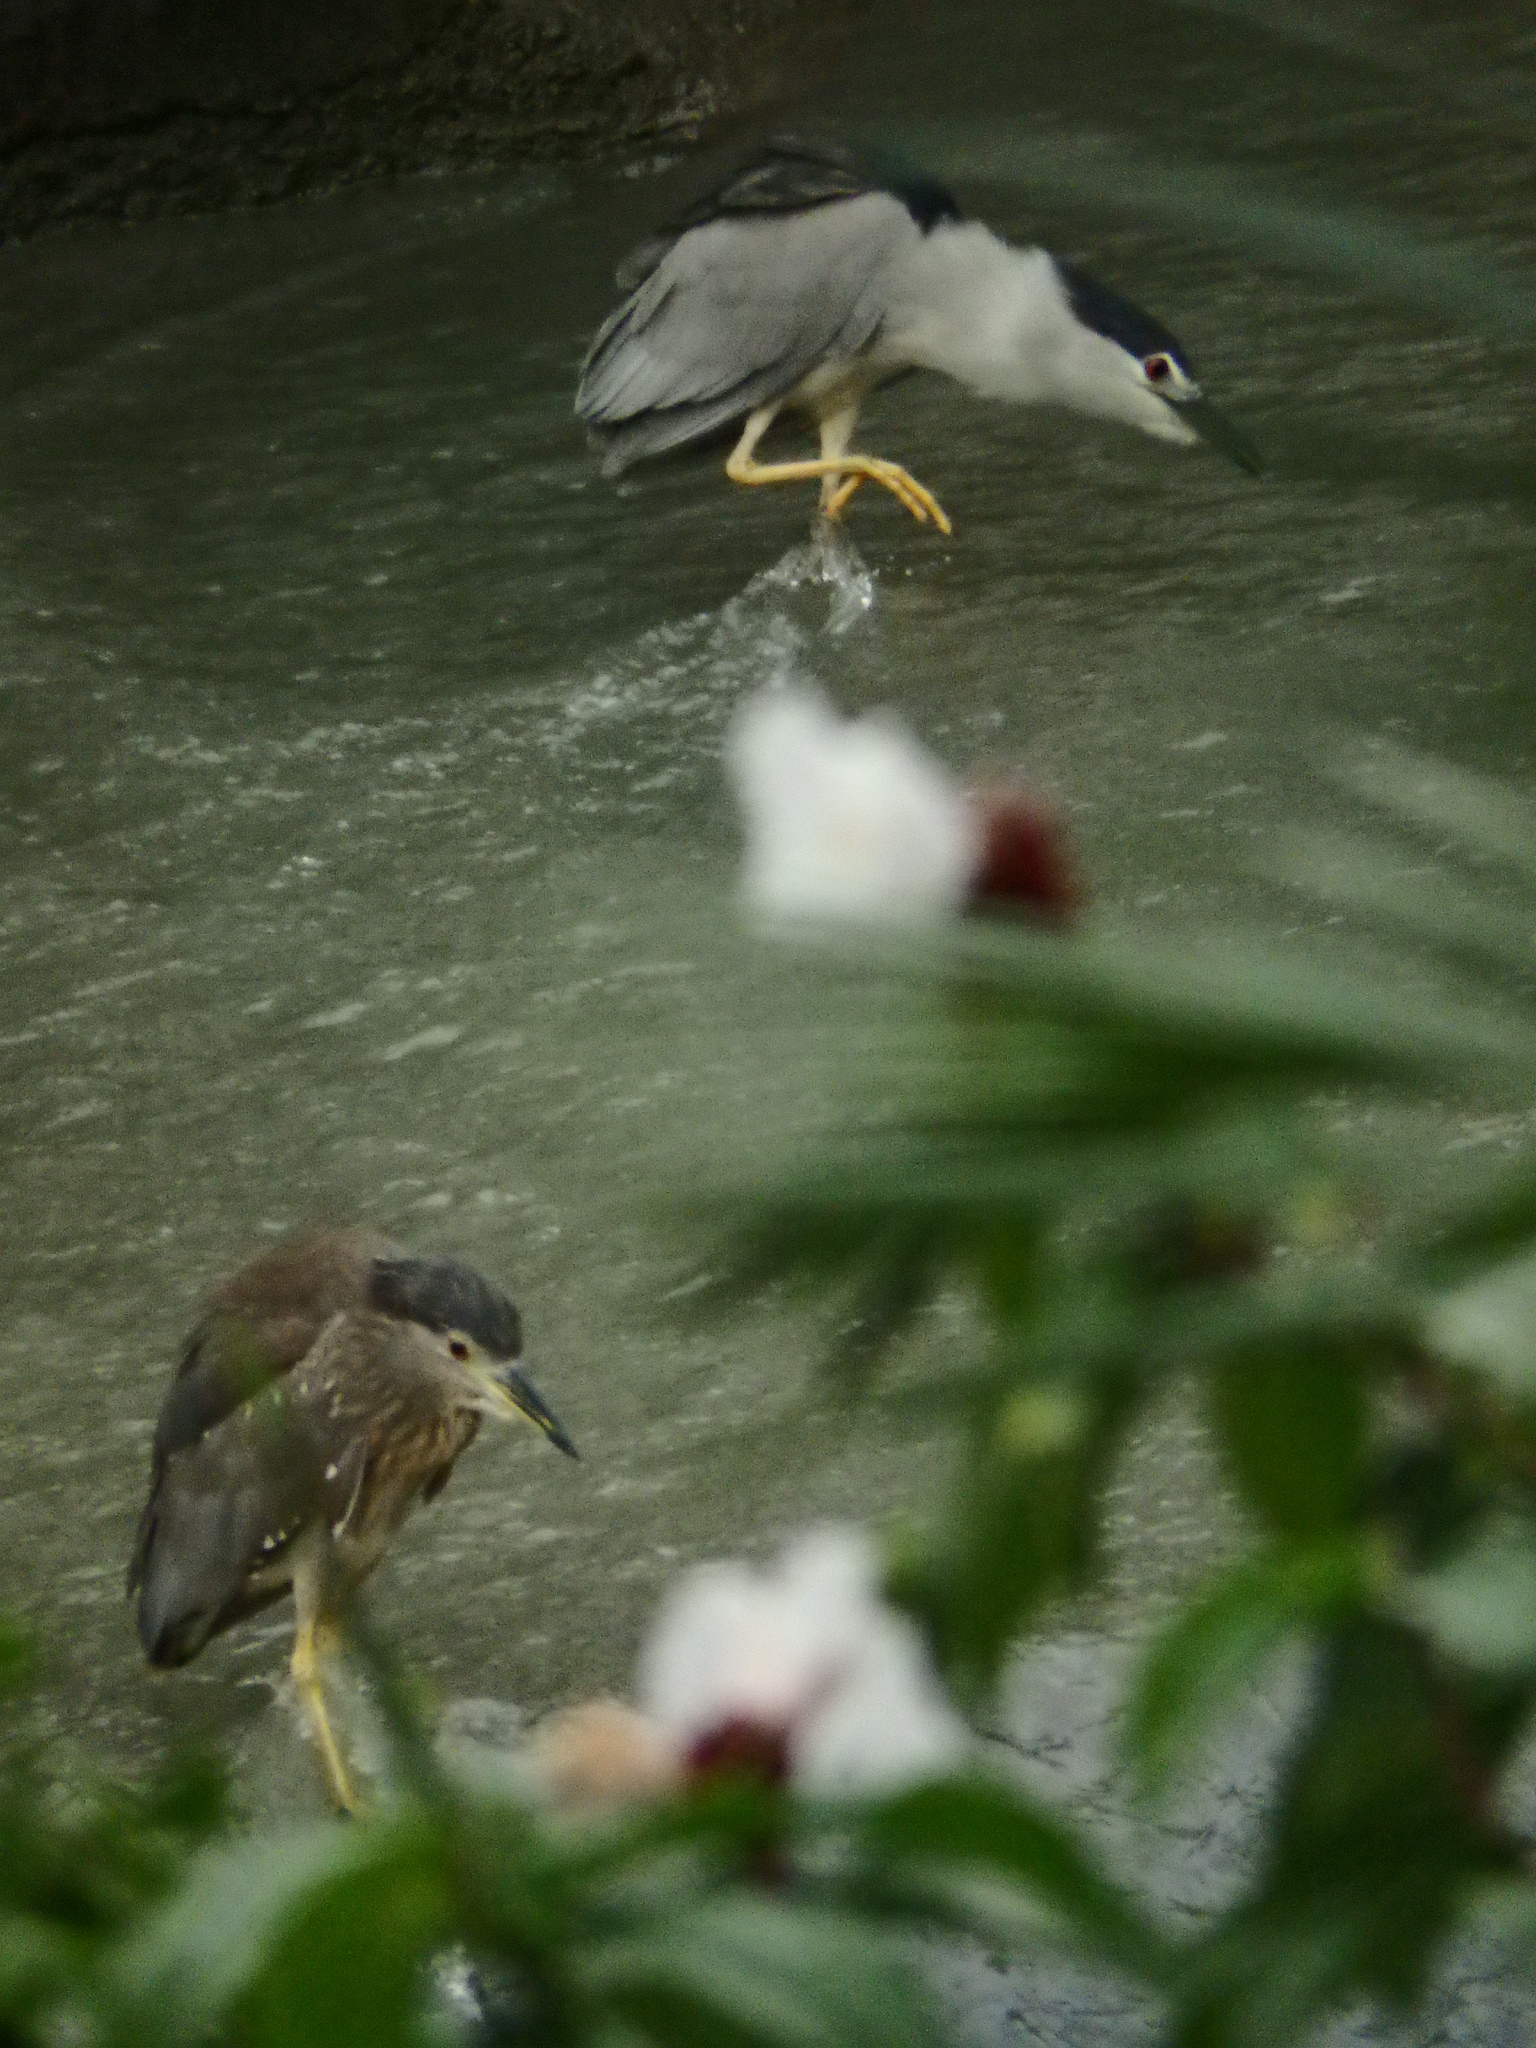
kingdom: Animalia
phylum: Chordata
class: Aves
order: Pelecaniformes
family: Ardeidae
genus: Nycticorax
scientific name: Nycticorax nycticorax
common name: Black-crowned night heron
